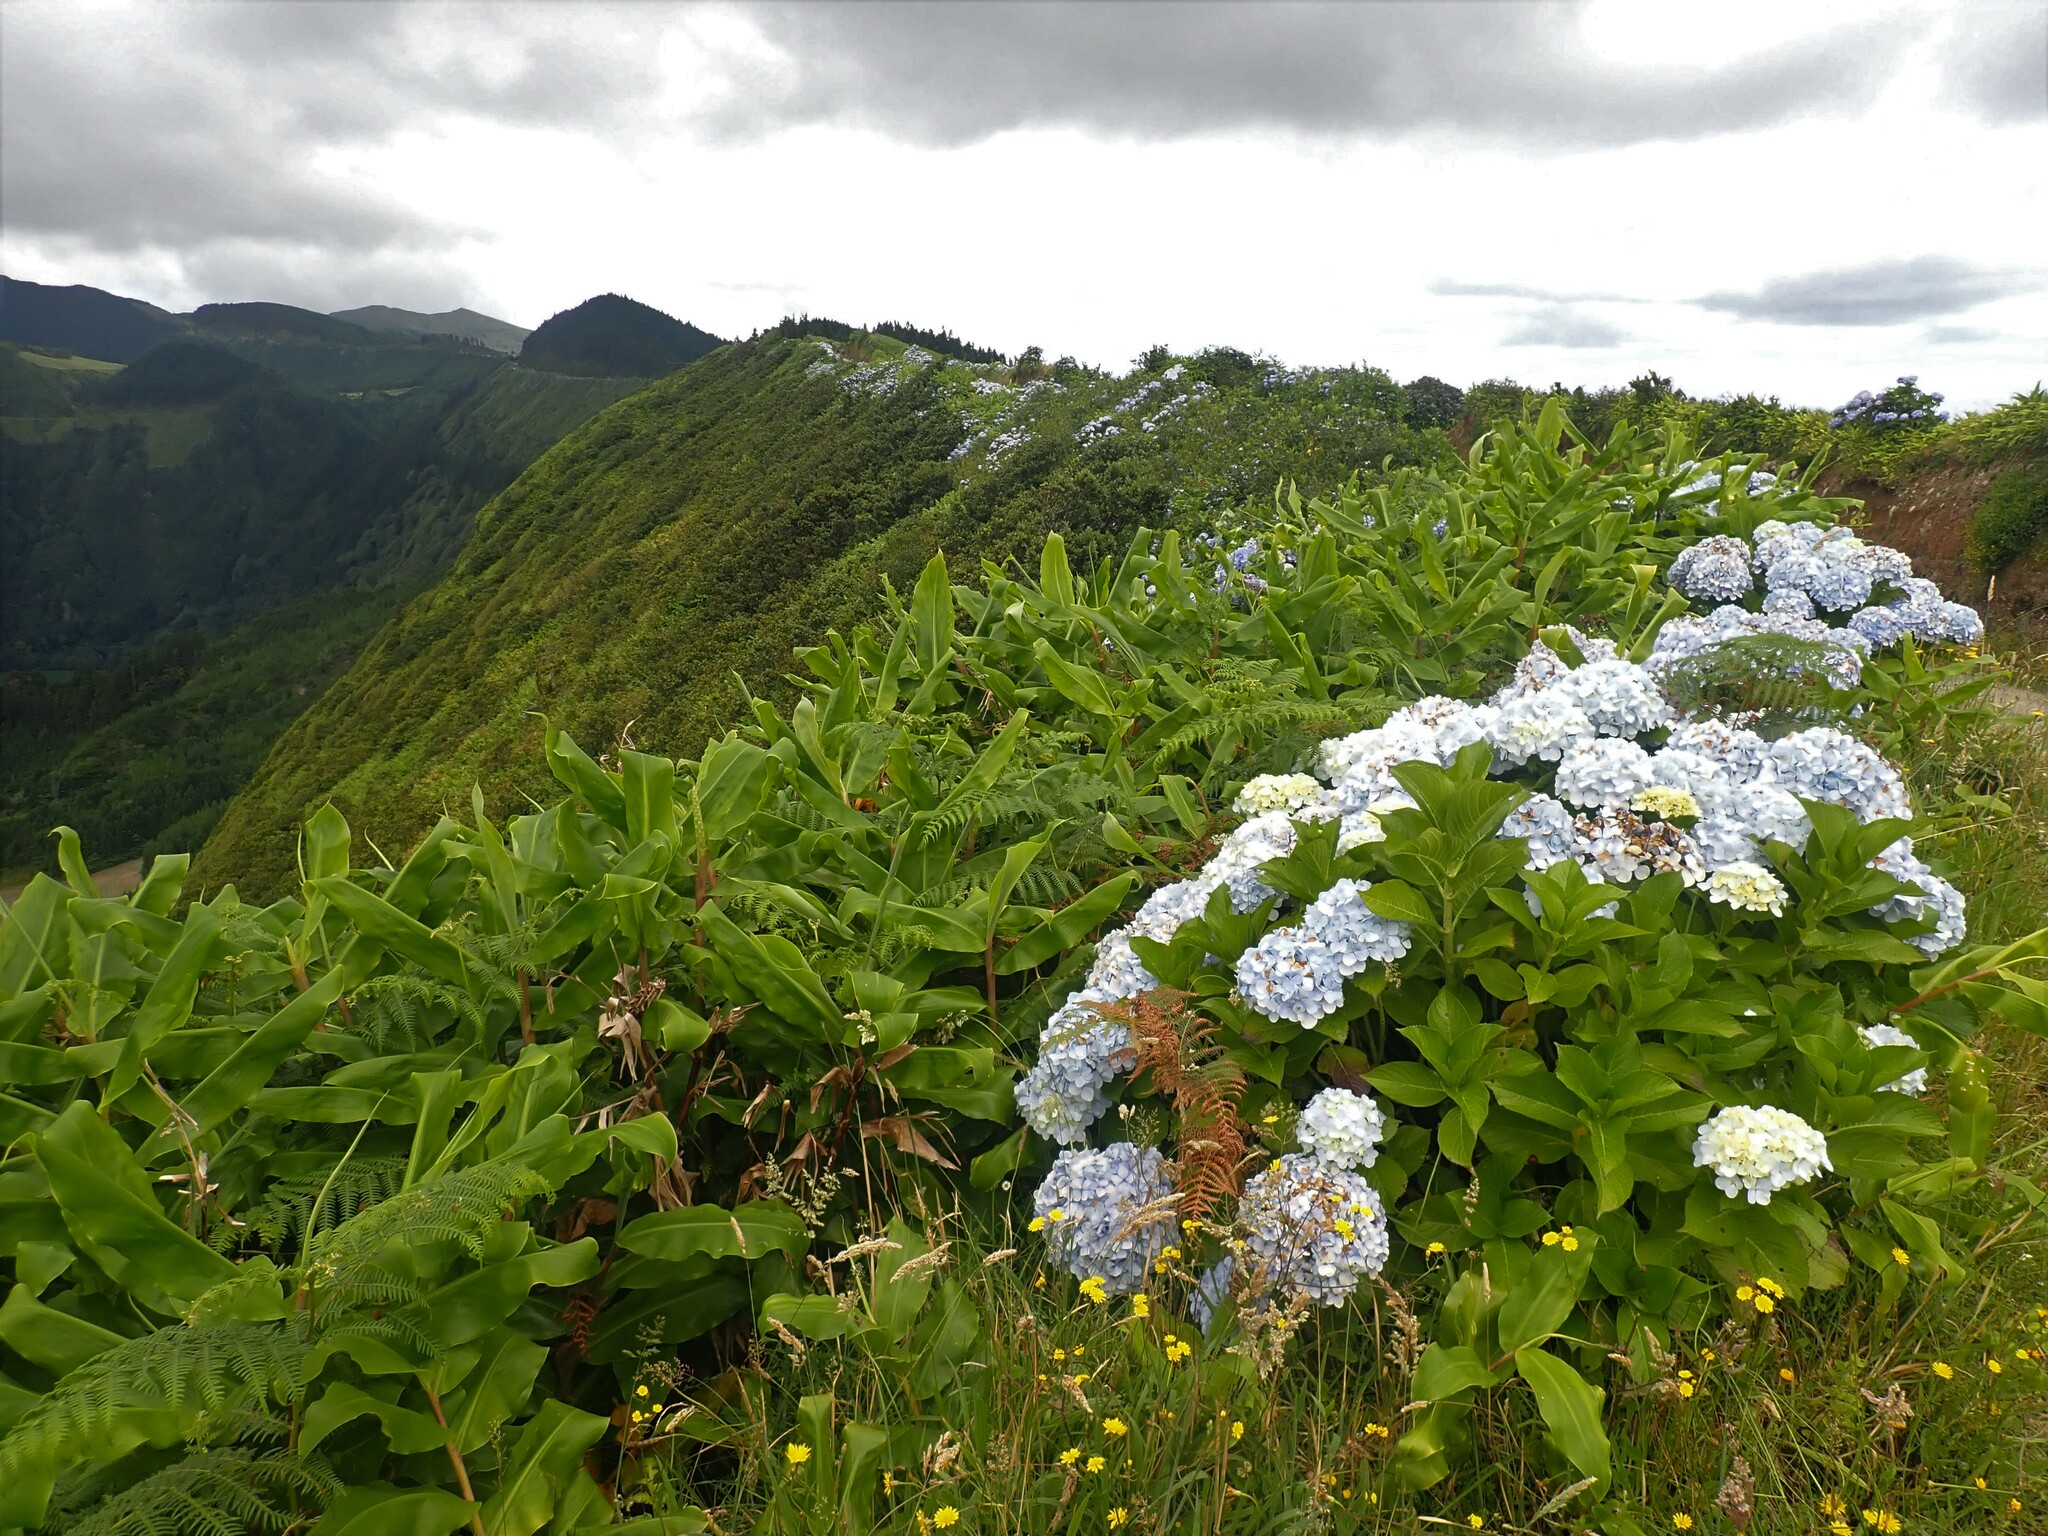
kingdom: Plantae
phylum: Tracheophyta
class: Magnoliopsida
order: Cornales
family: Hydrangeaceae
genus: Hydrangea
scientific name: Hydrangea macrophylla
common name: Hydrangea
